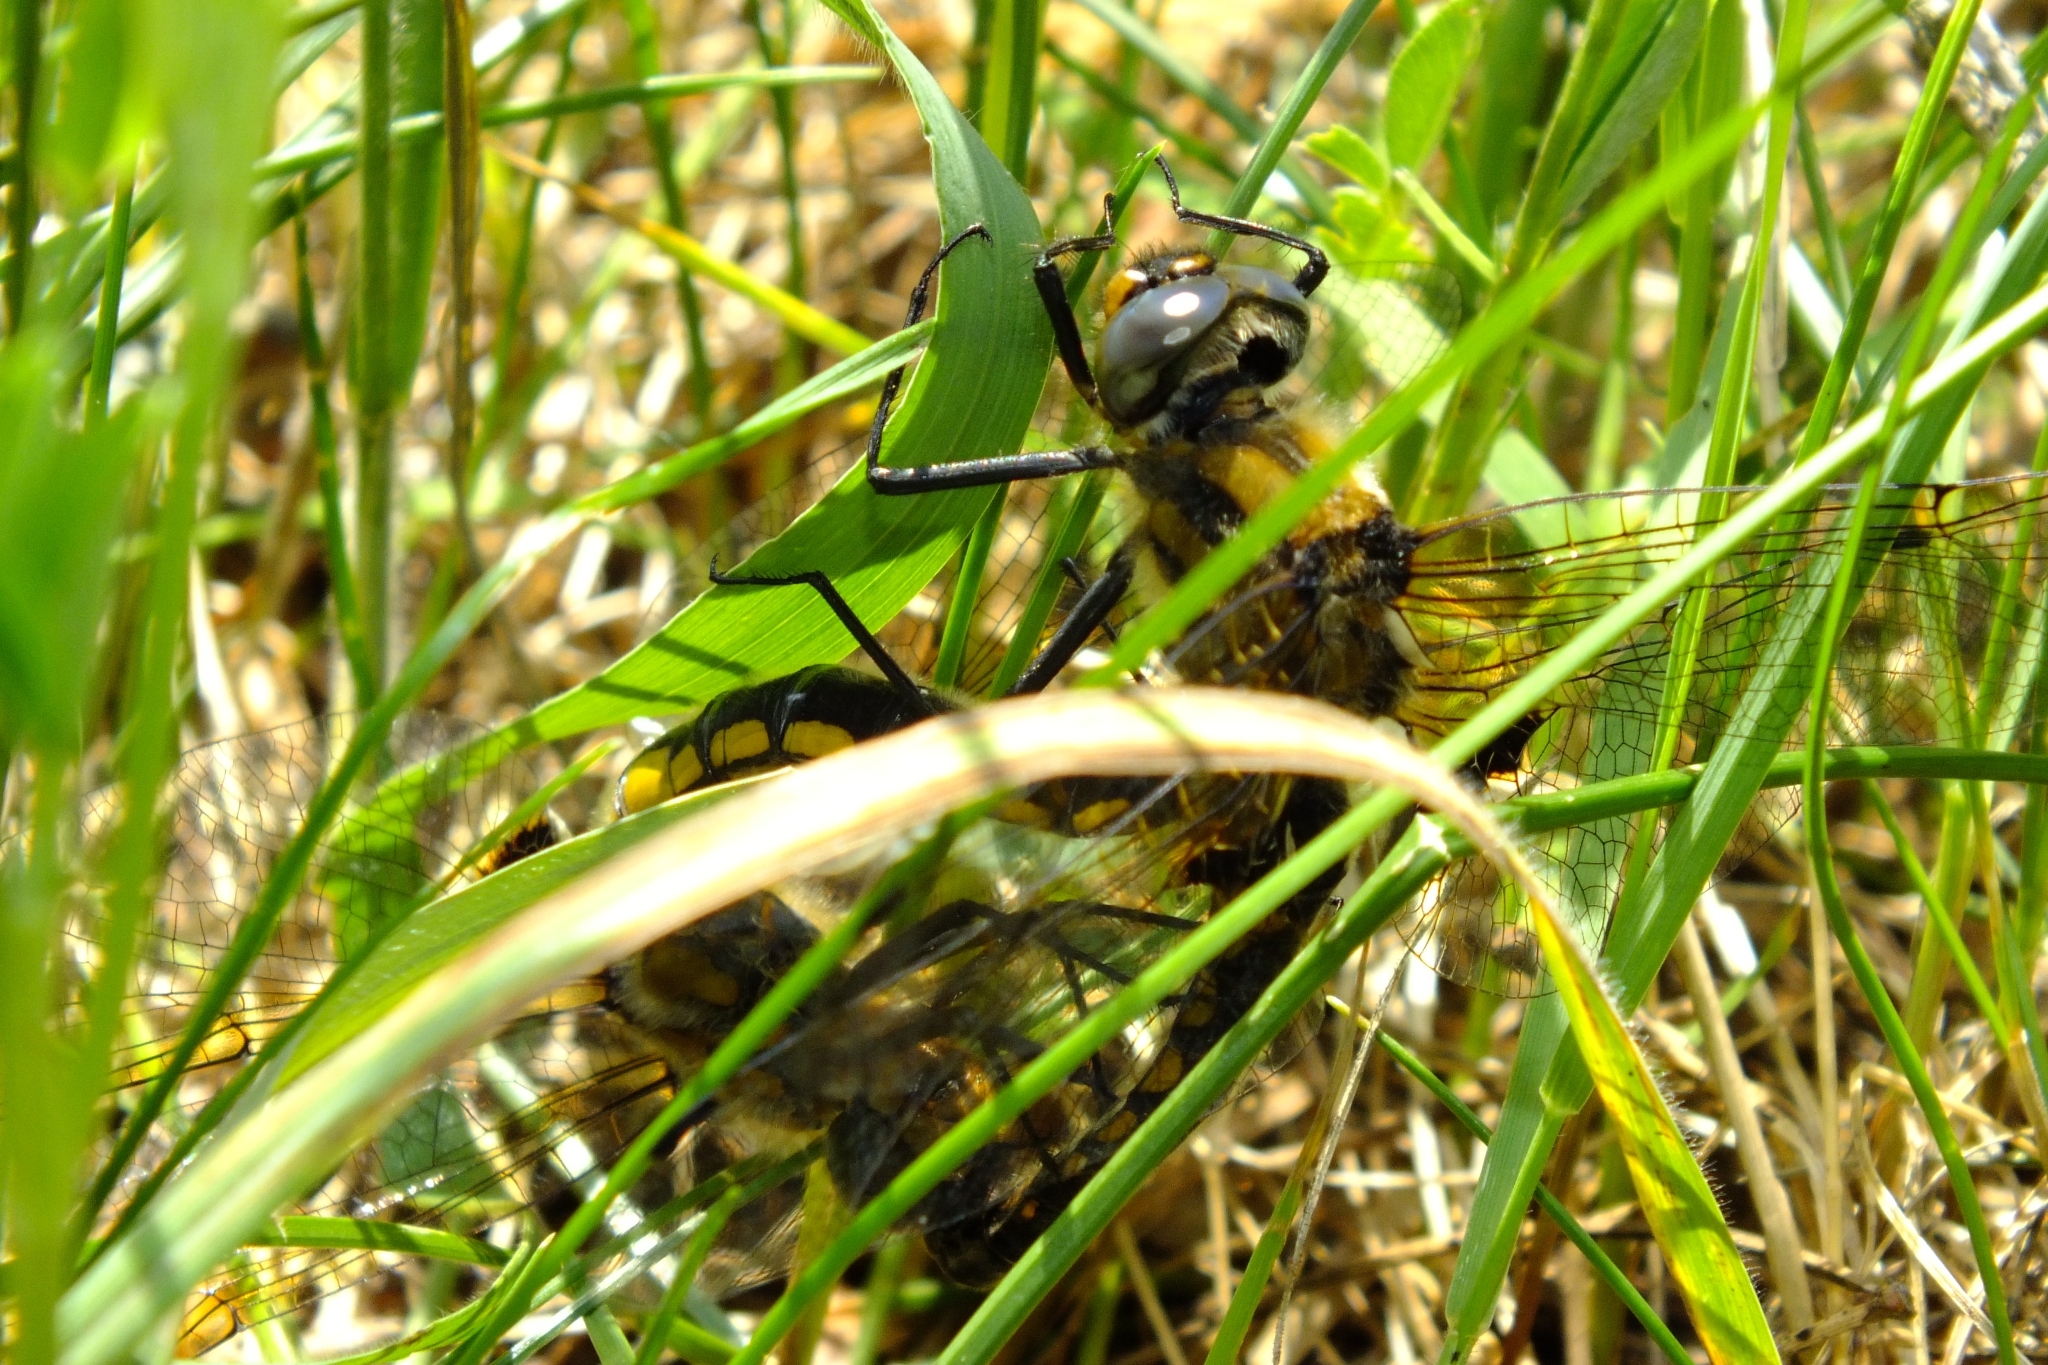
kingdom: Animalia
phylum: Arthropoda
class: Insecta
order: Odonata
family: Corduliidae
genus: Epitheca
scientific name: Epitheca bimaculata
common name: Eurasian baskettail
